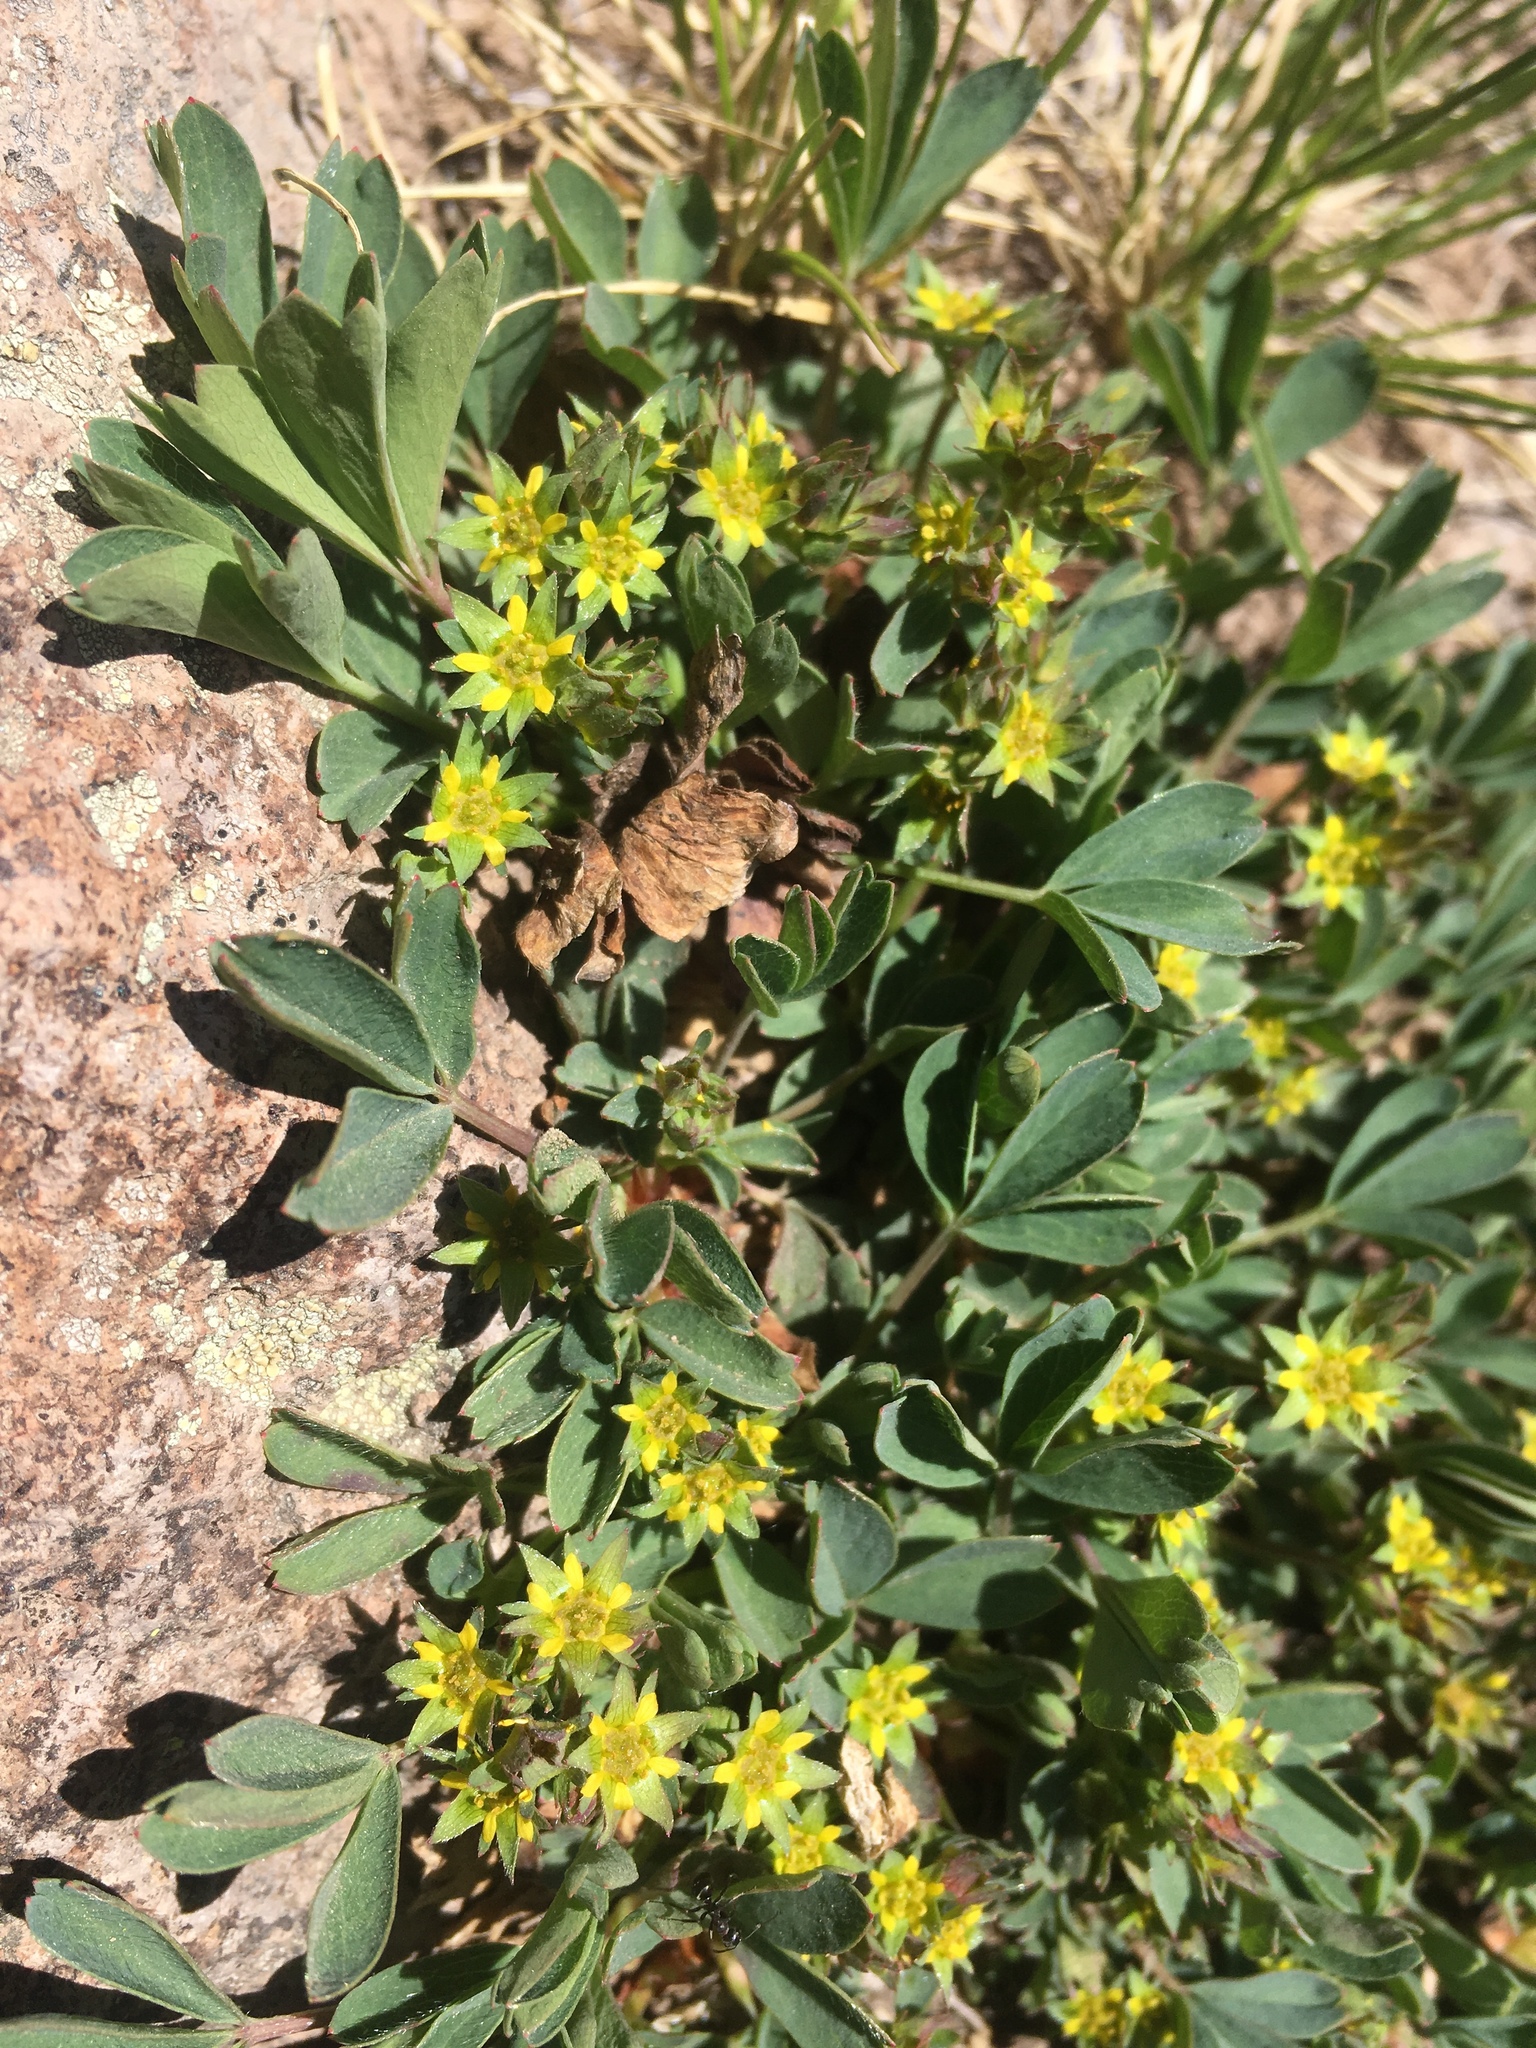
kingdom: Plantae
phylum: Tracheophyta
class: Magnoliopsida
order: Rosales
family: Rosaceae
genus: Sibbaldia
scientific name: Sibbaldia procumbens
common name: Creeping sibbaldia
